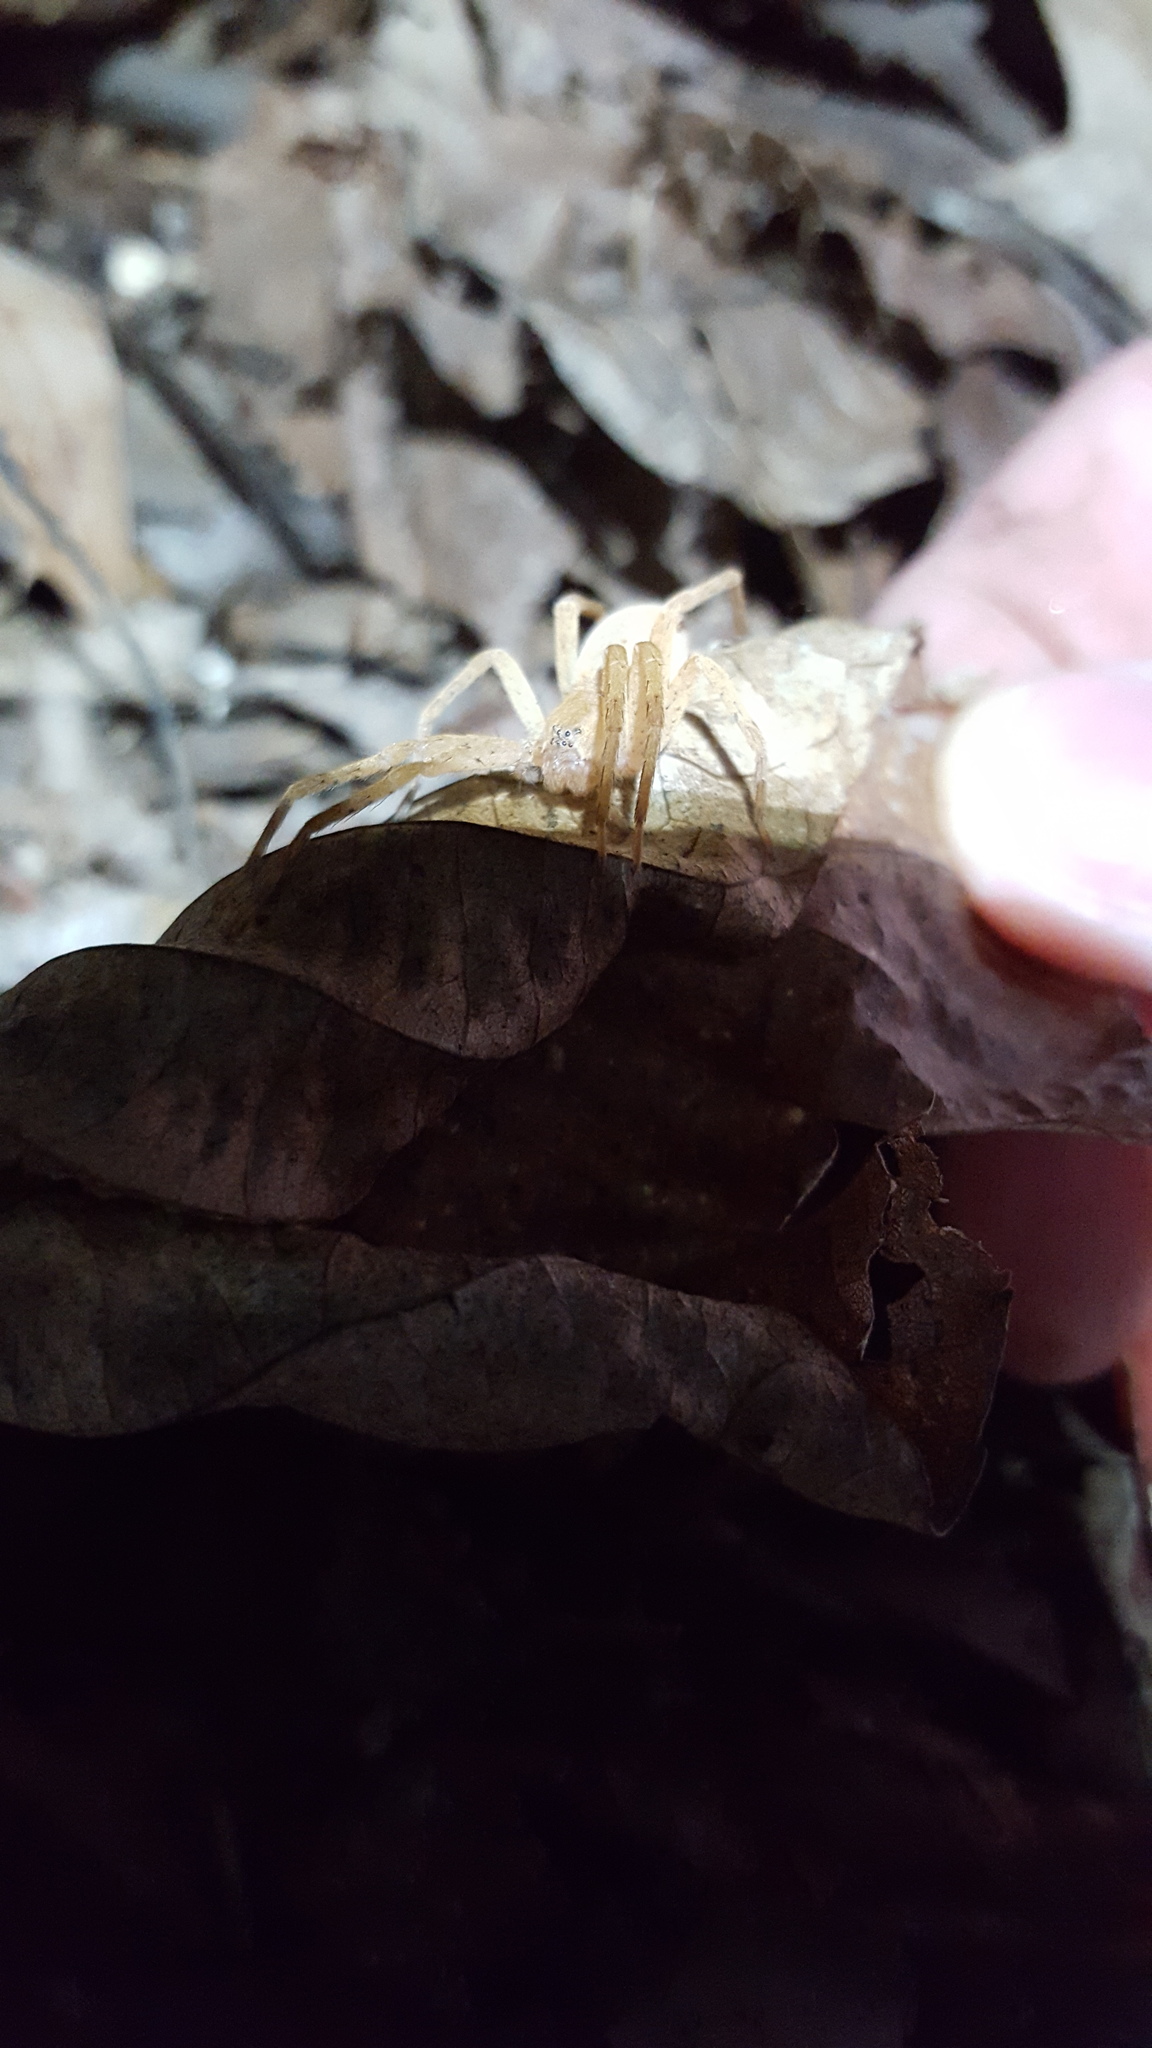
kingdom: Animalia
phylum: Arthropoda
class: Arachnida
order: Araneae
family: Pisauridae
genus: Pisaurina
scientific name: Pisaurina mira
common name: American nursery web spider
